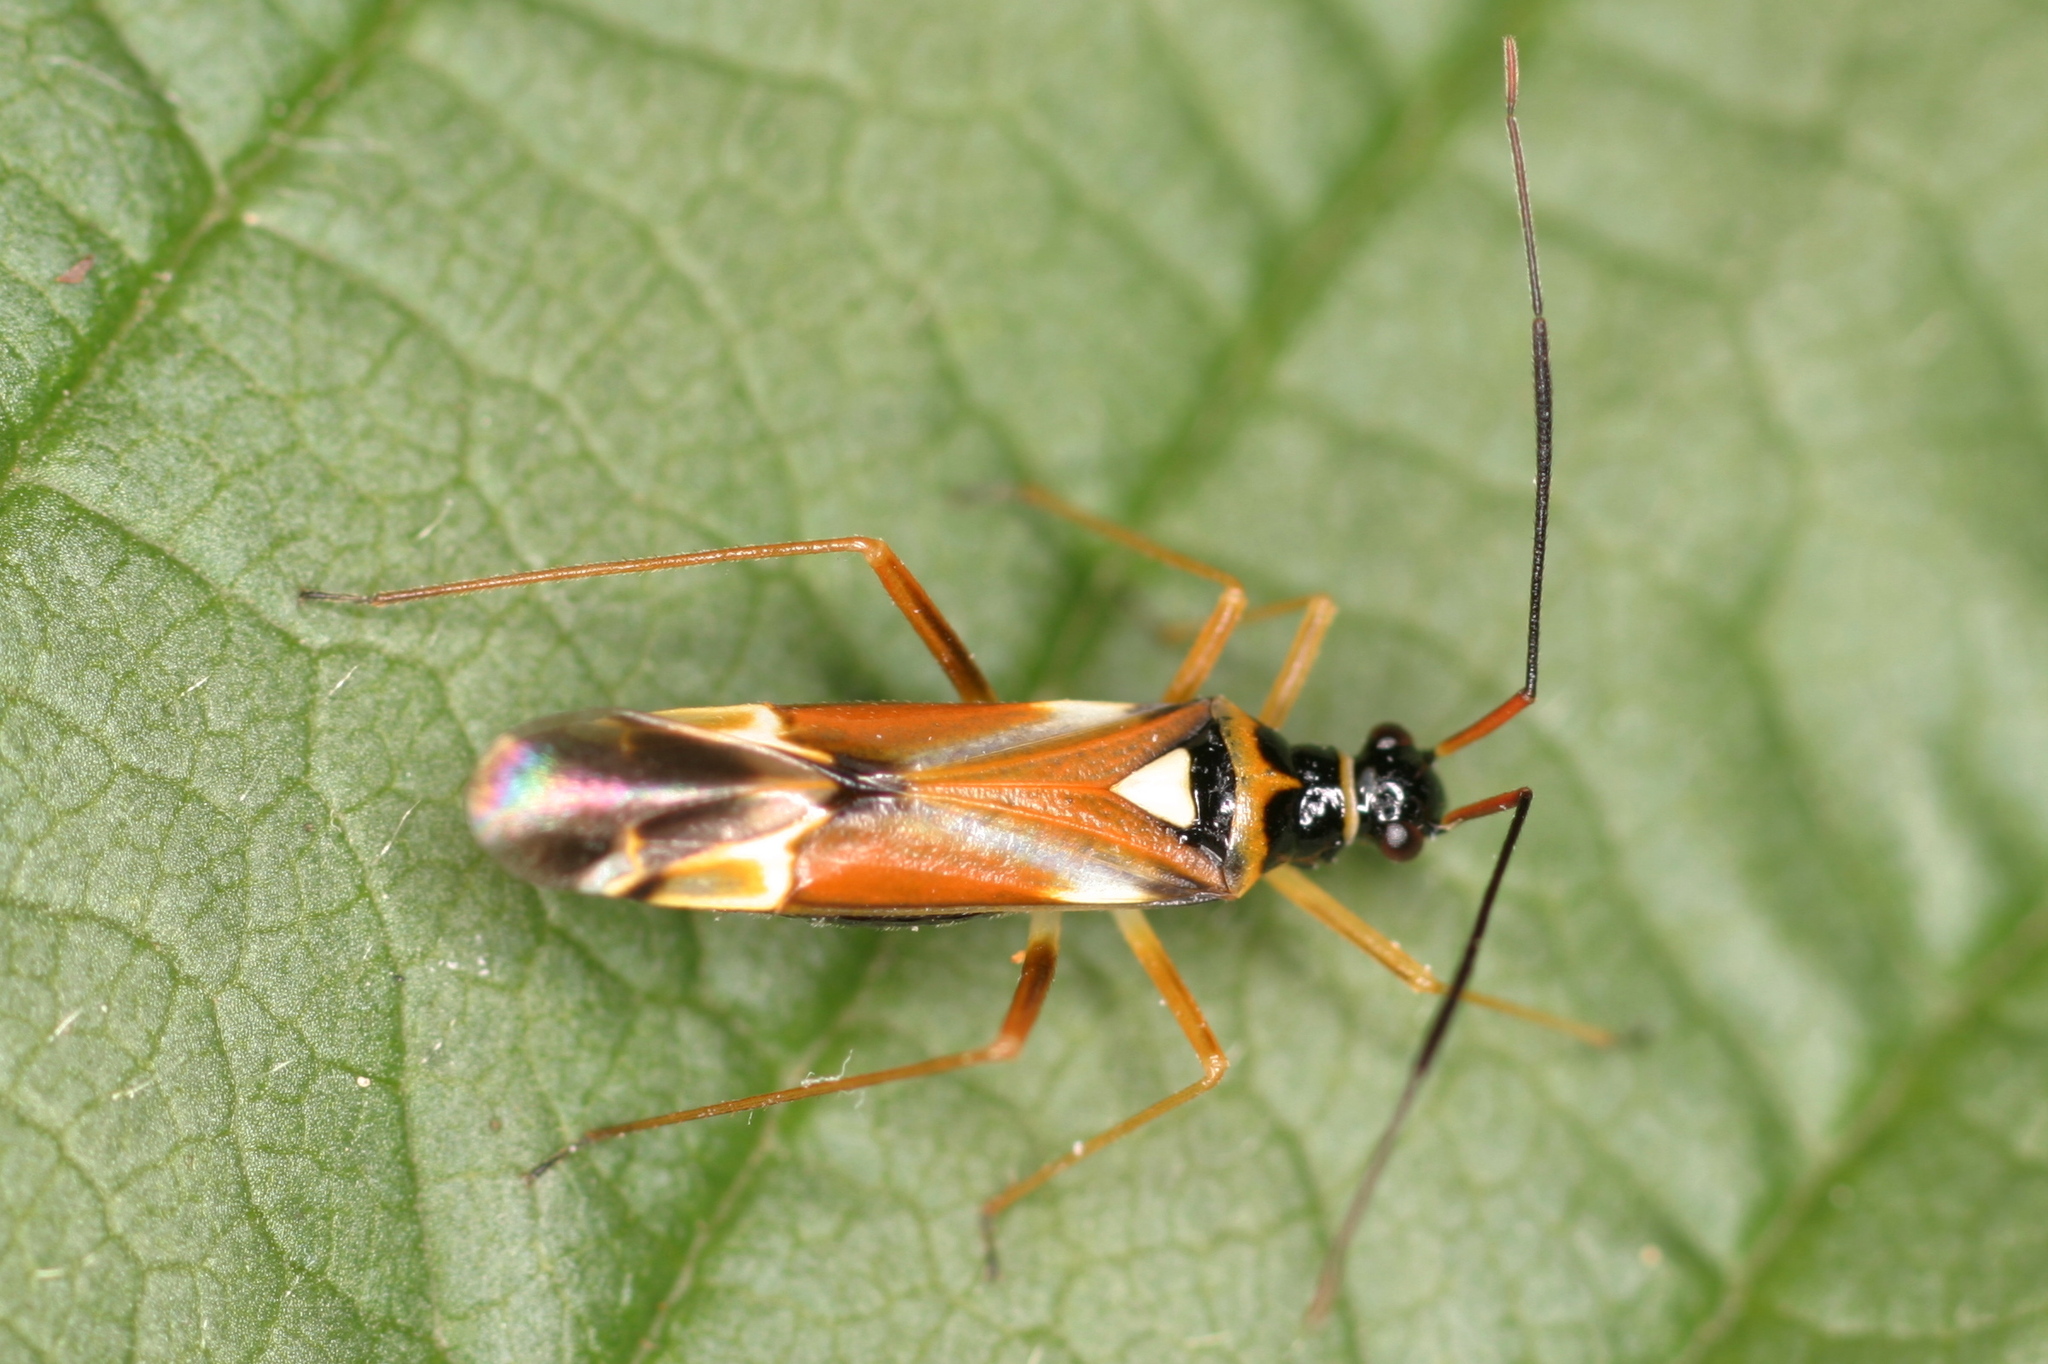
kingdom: Animalia
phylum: Arthropoda
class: Insecta
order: Hemiptera
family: Miridae
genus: Cyllecoris
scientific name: Cyllecoris histrionius
